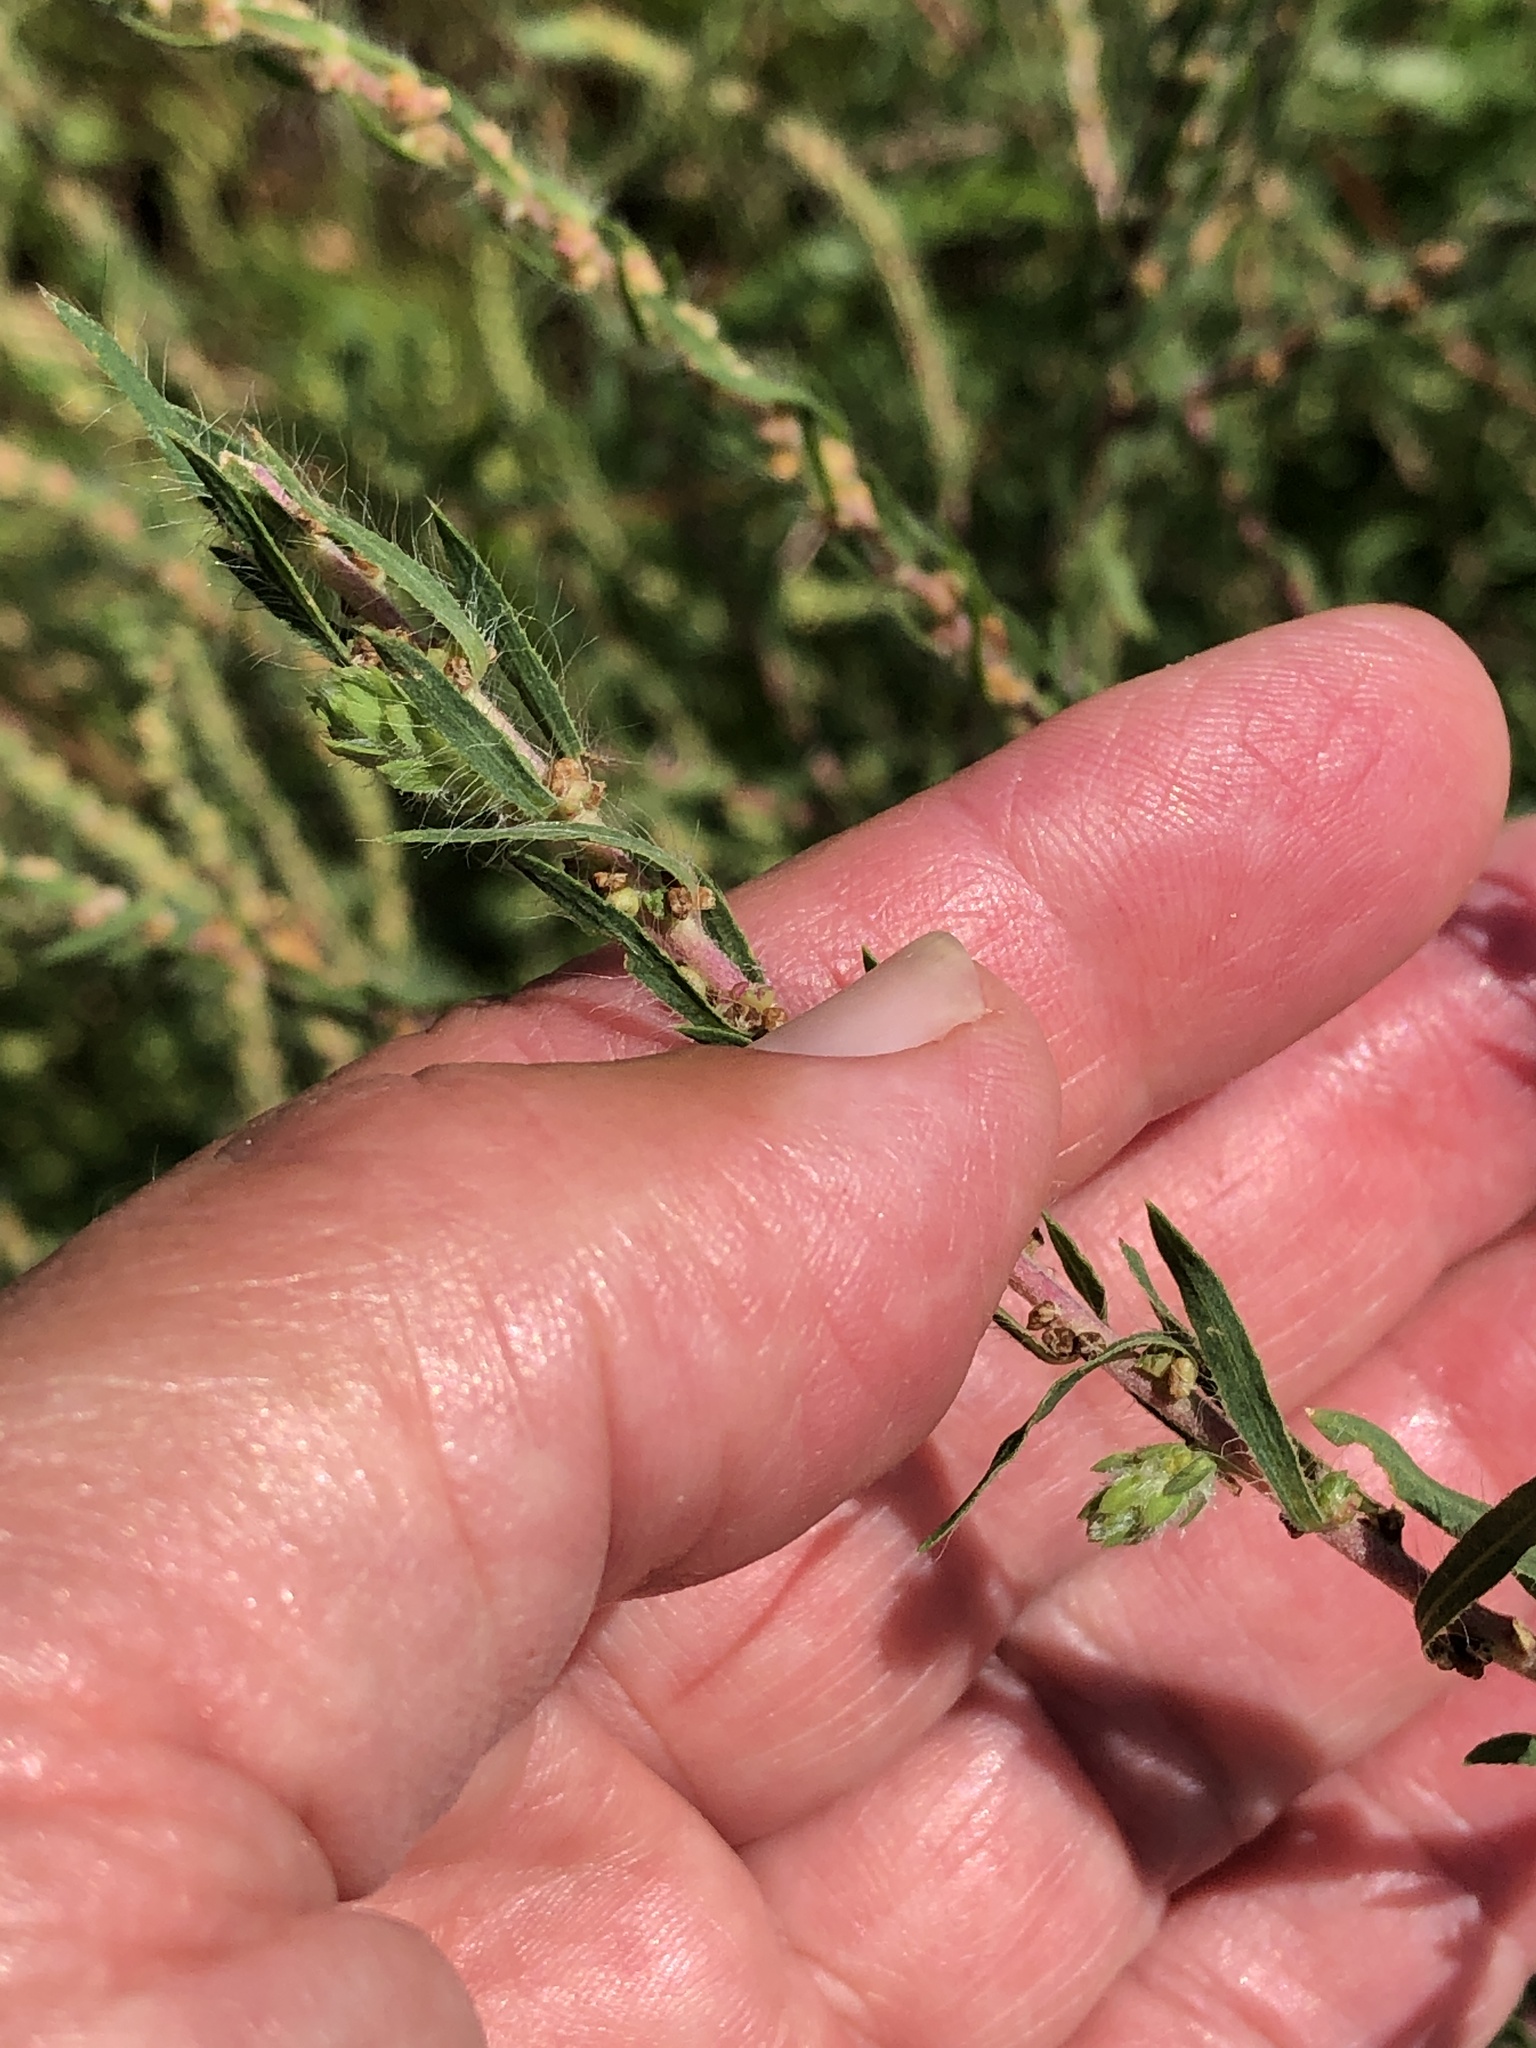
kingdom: Plantae
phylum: Tracheophyta
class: Magnoliopsida
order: Caryophyllales
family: Amaranthaceae
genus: Bassia
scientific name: Bassia scoparia
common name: Belvedere
